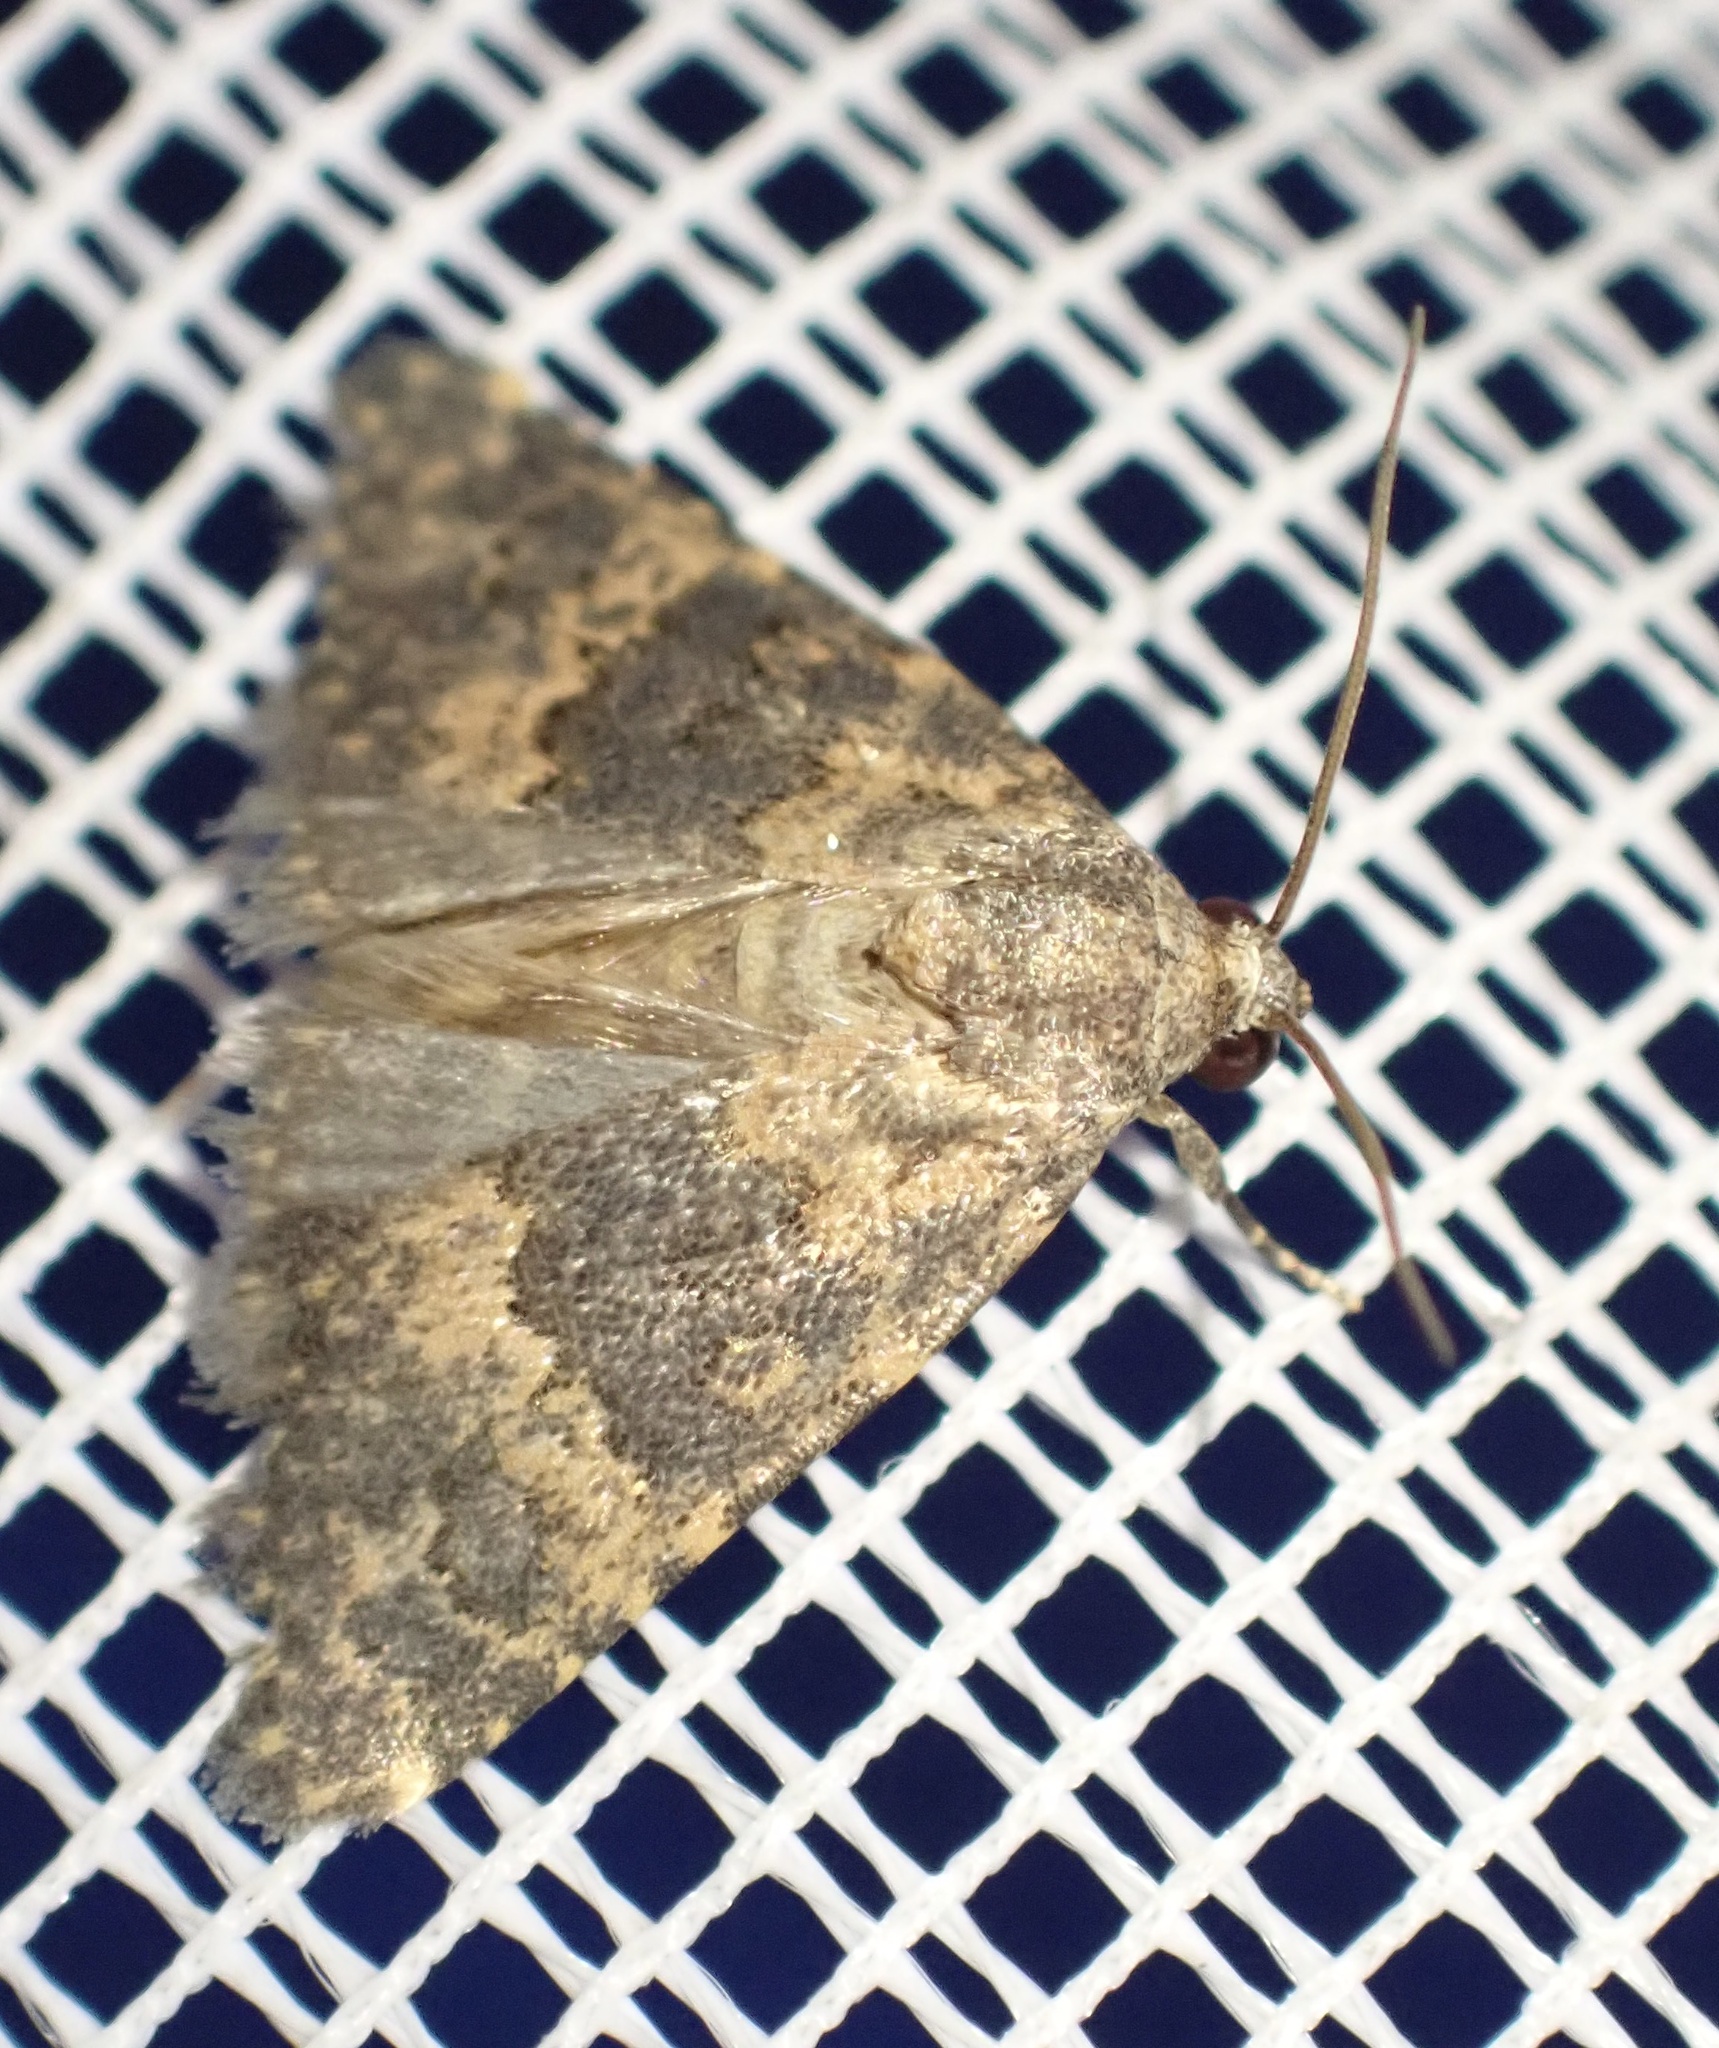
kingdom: Animalia
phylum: Arthropoda
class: Insecta
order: Lepidoptera
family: Noctuidae
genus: Duhemia
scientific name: Duhemia variegata
